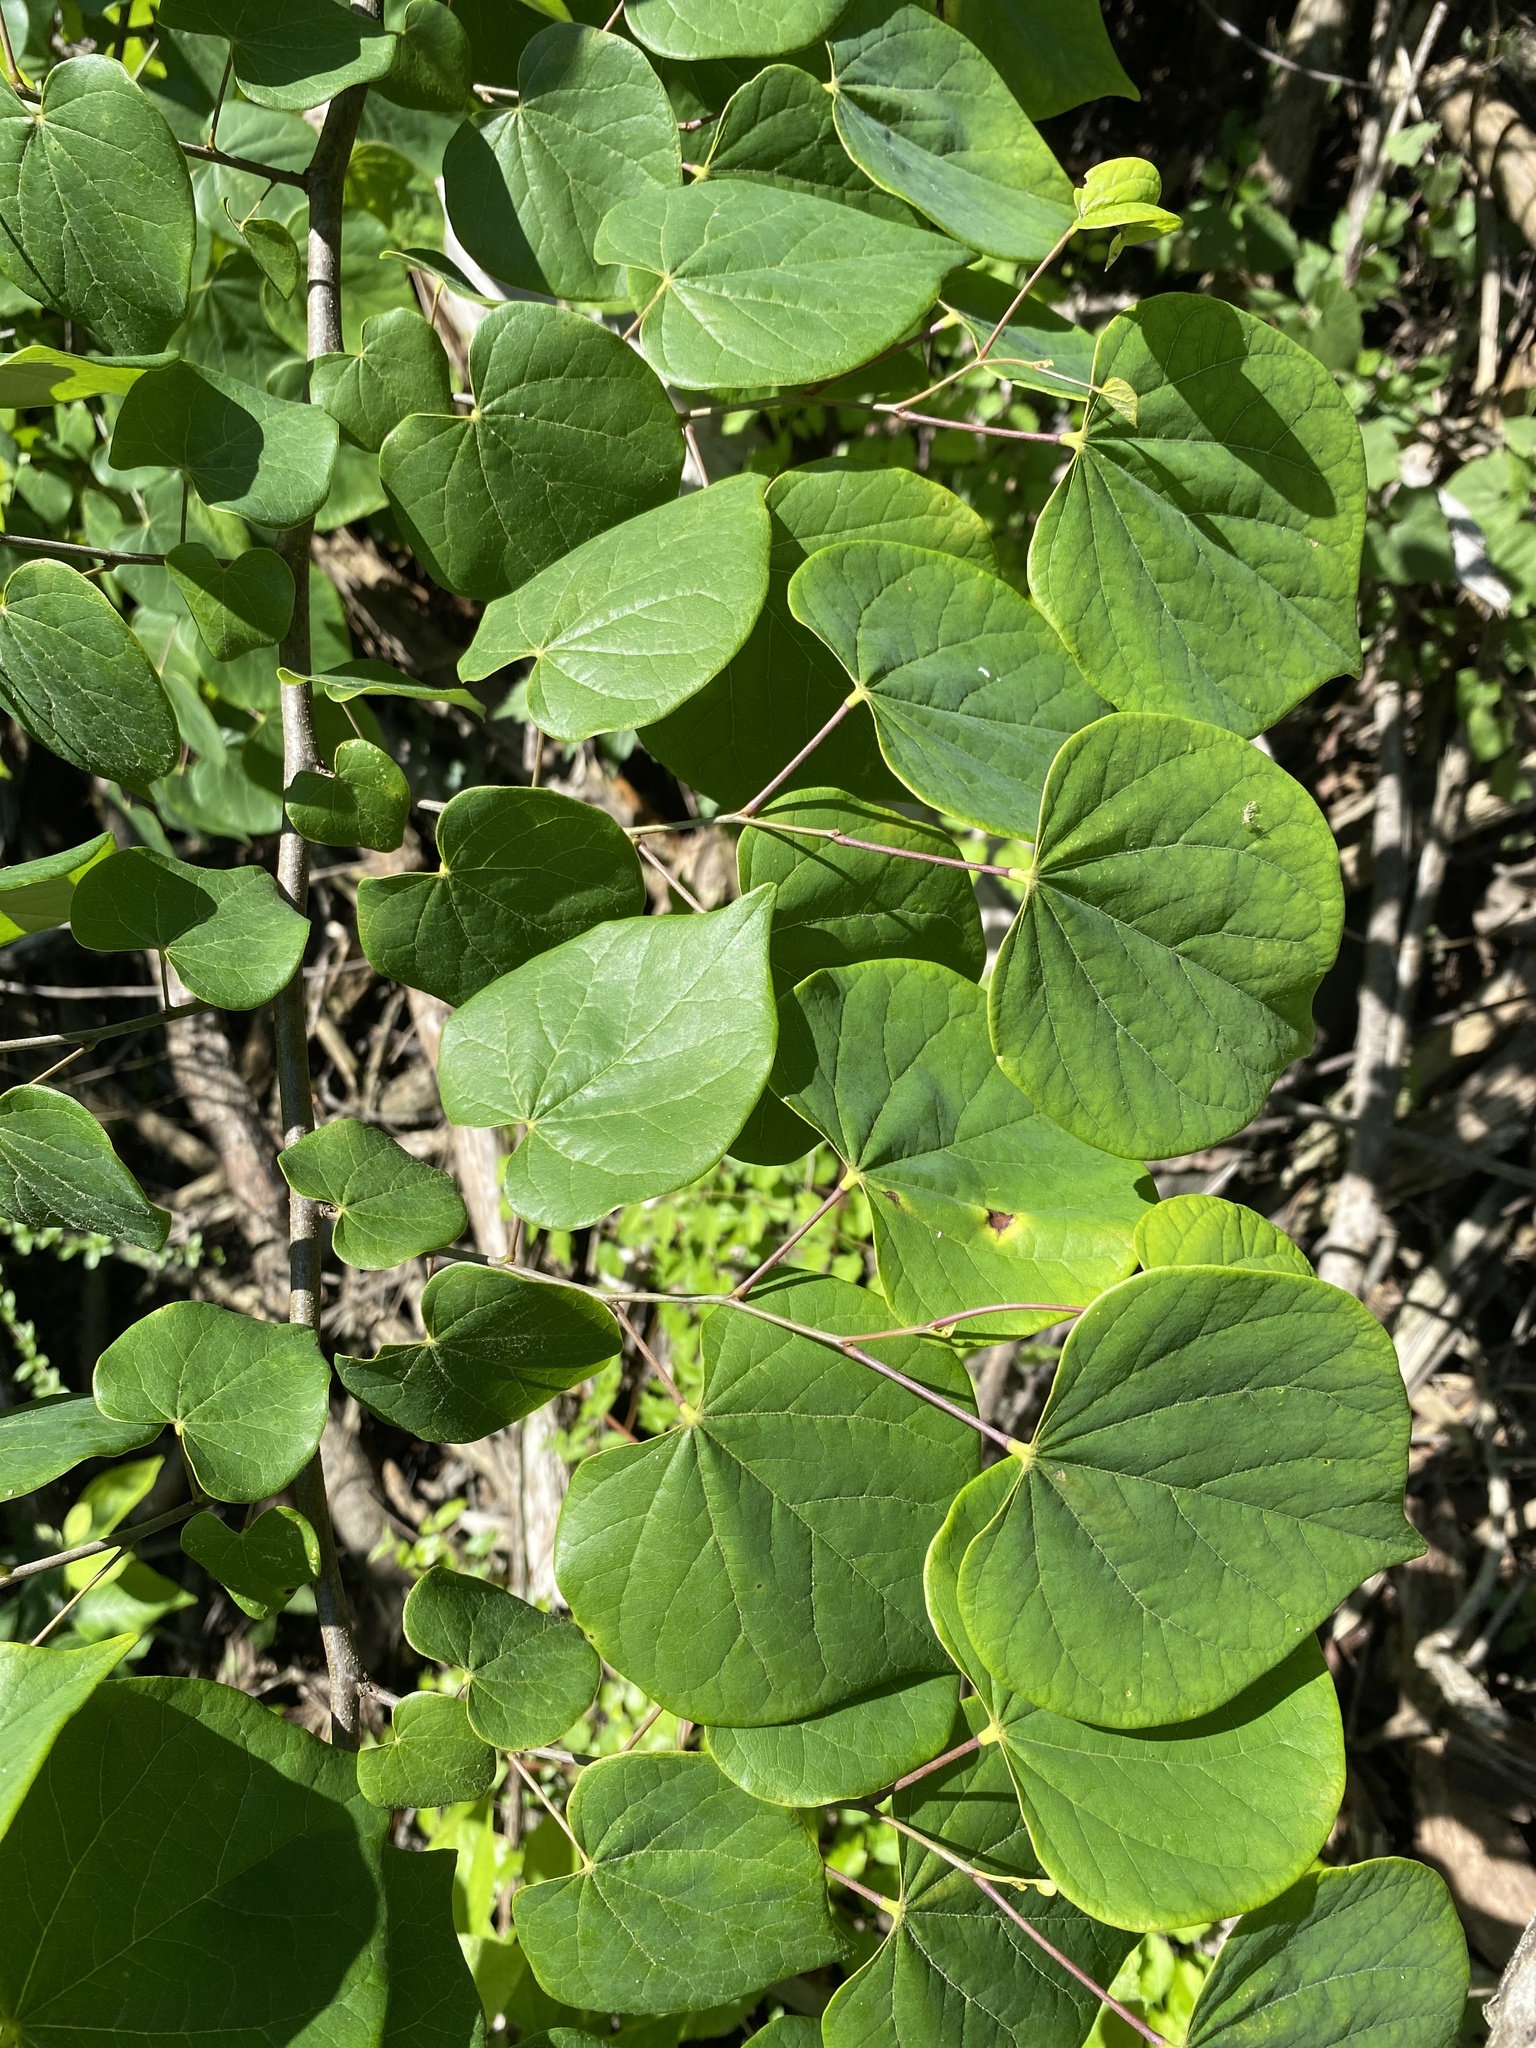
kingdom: Plantae
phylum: Tracheophyta
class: Magnoliopsida
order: Fabales
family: Fabaceae
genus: Cercis
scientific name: Cercis canadensis
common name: Eastern redbud
